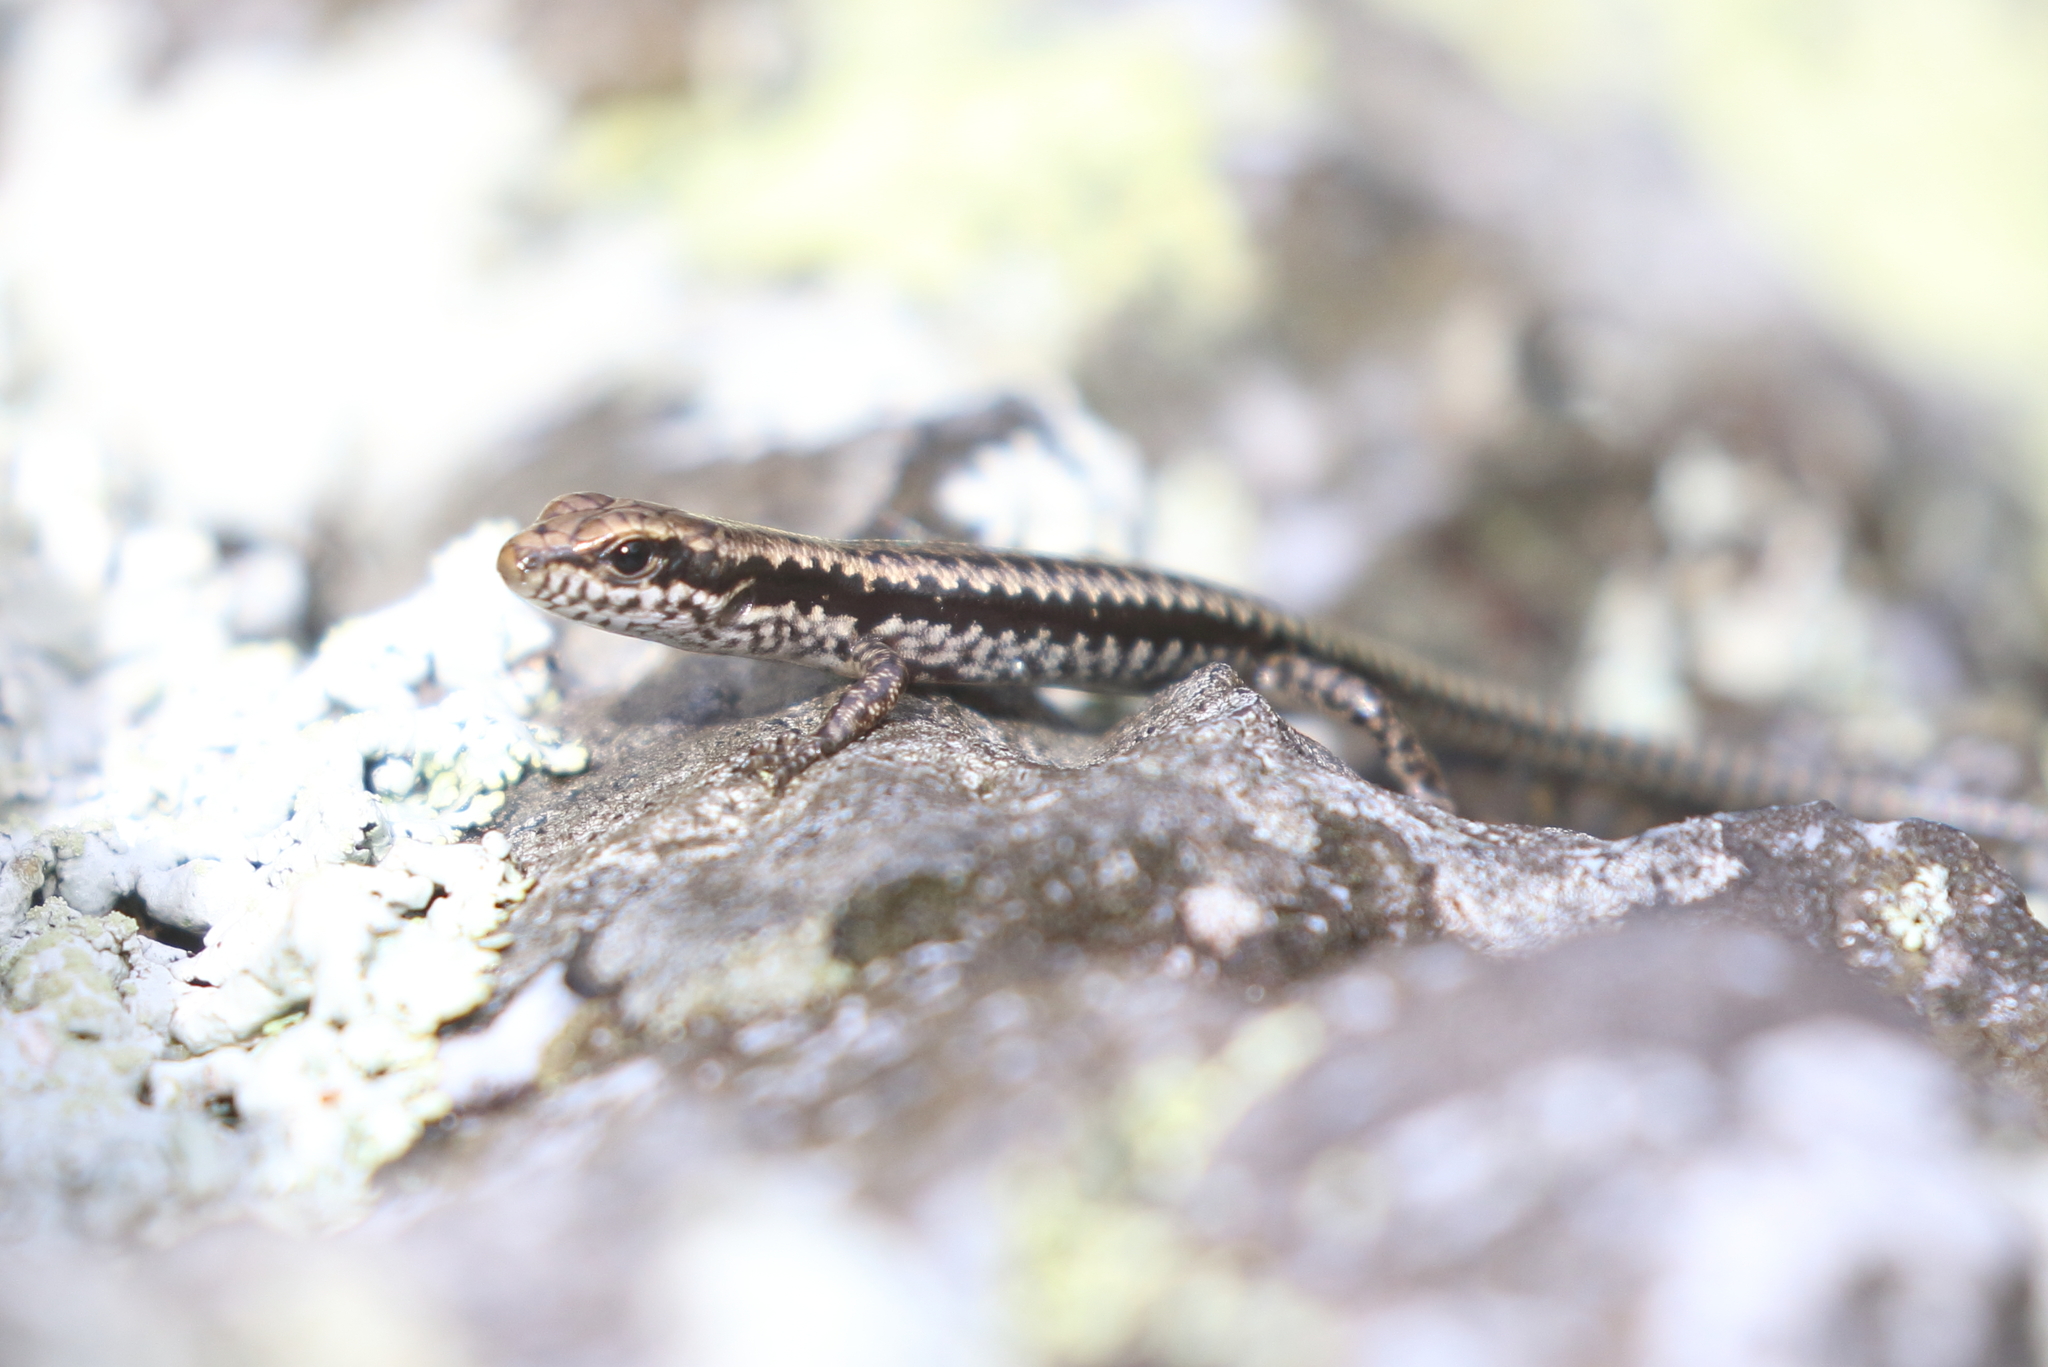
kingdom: Animalia
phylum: Chordata
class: Squamata
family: Scincidae
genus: Concinnia
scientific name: Concinnia martini
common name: Dark barsided skink
